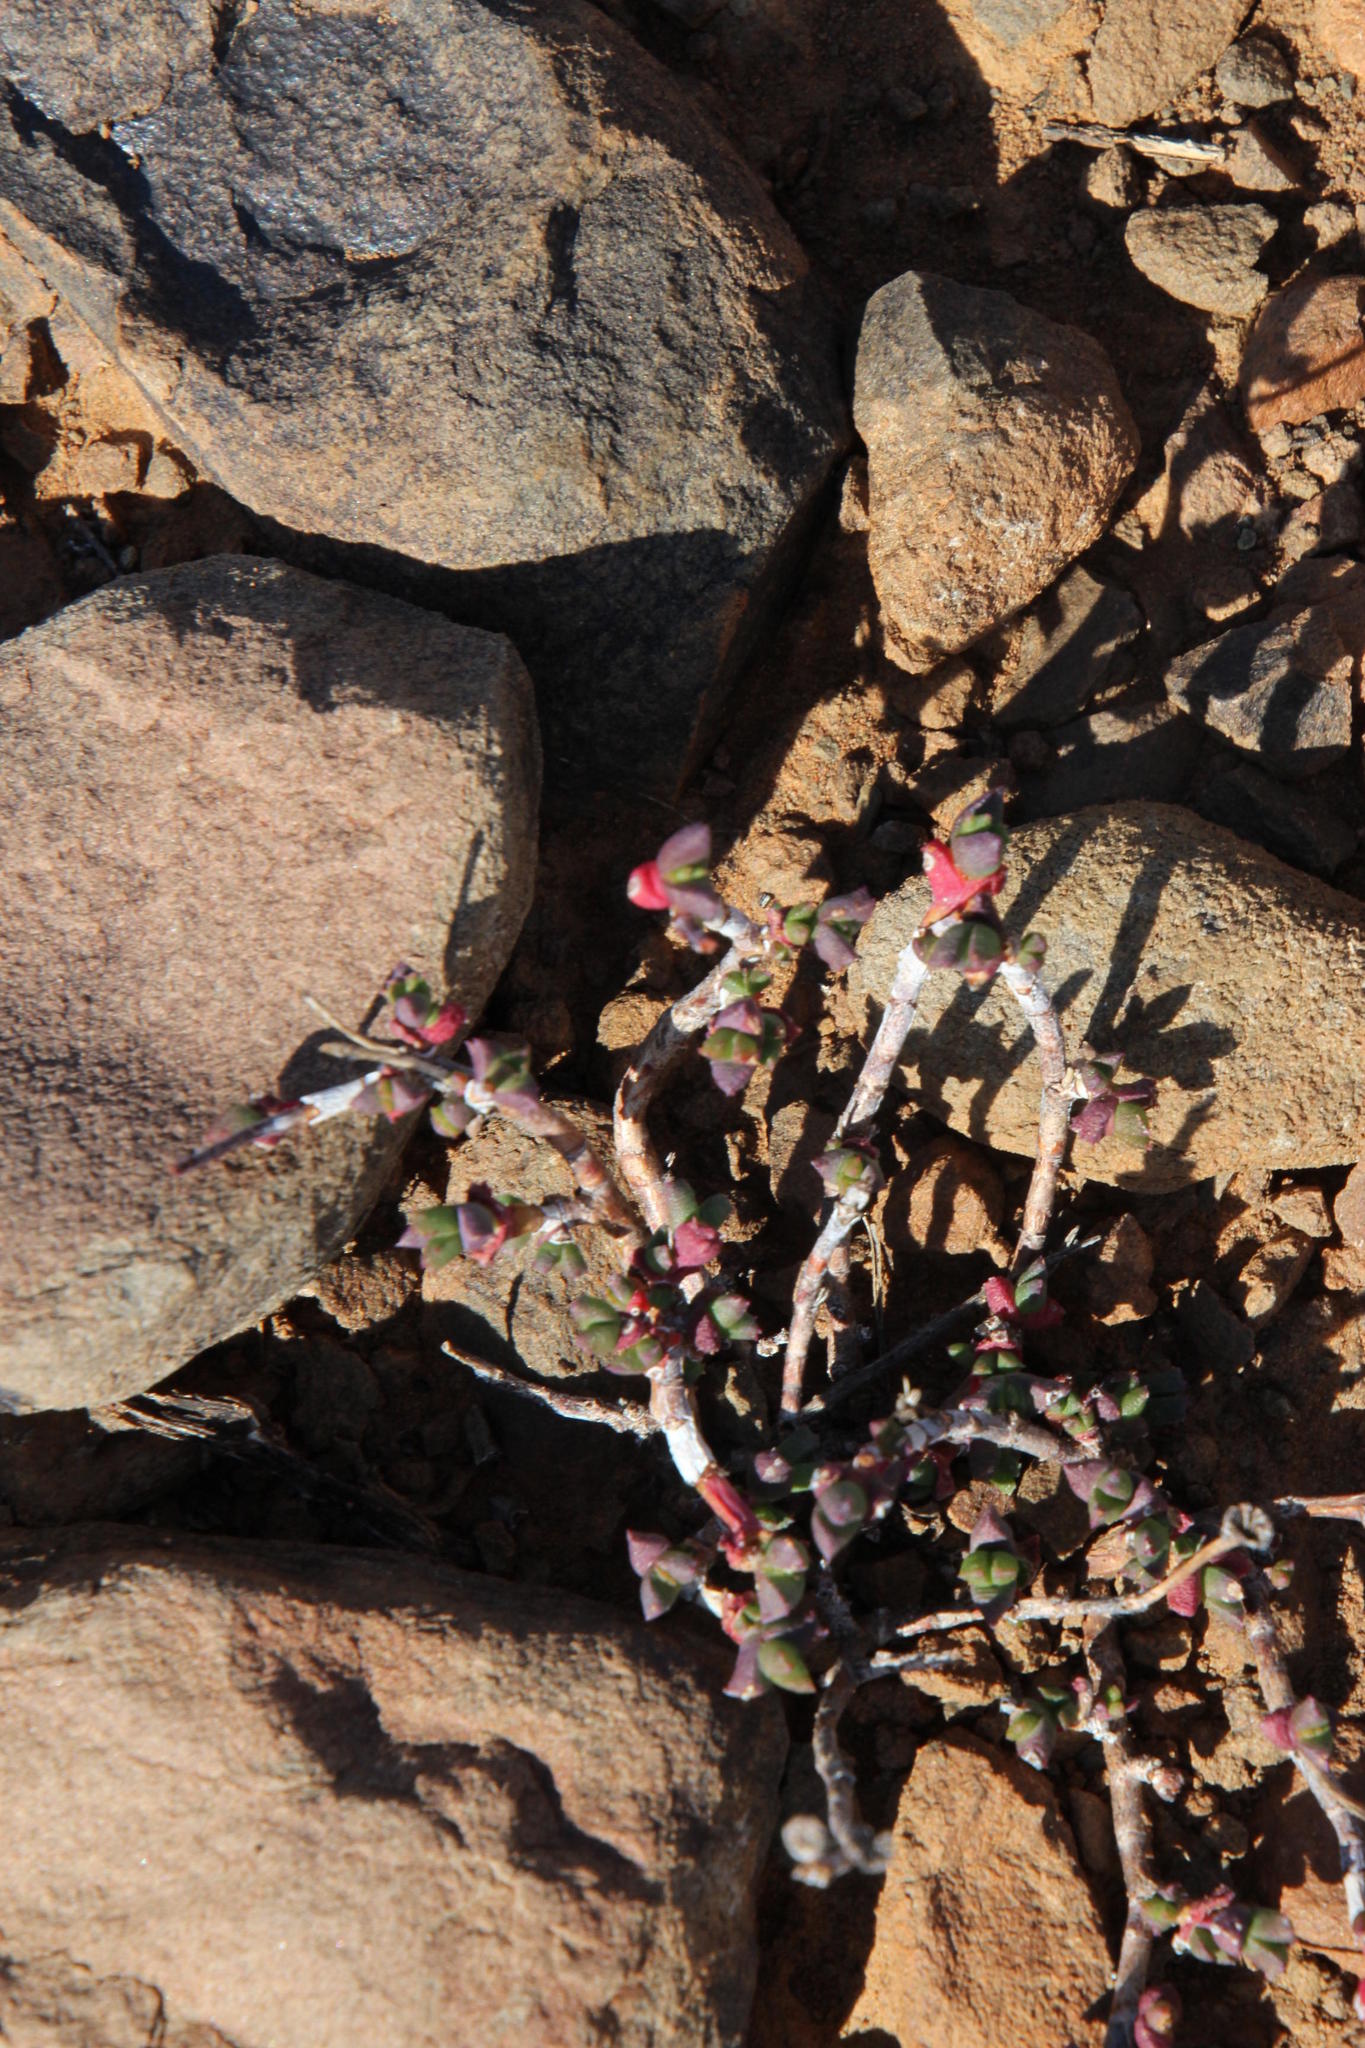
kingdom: Plantae
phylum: Tracheophyta
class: Magnoliopsida
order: Caryophyllales
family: Aizoaceae
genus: Dracophilus
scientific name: Dracophilus Chasmatophyllum nelii
